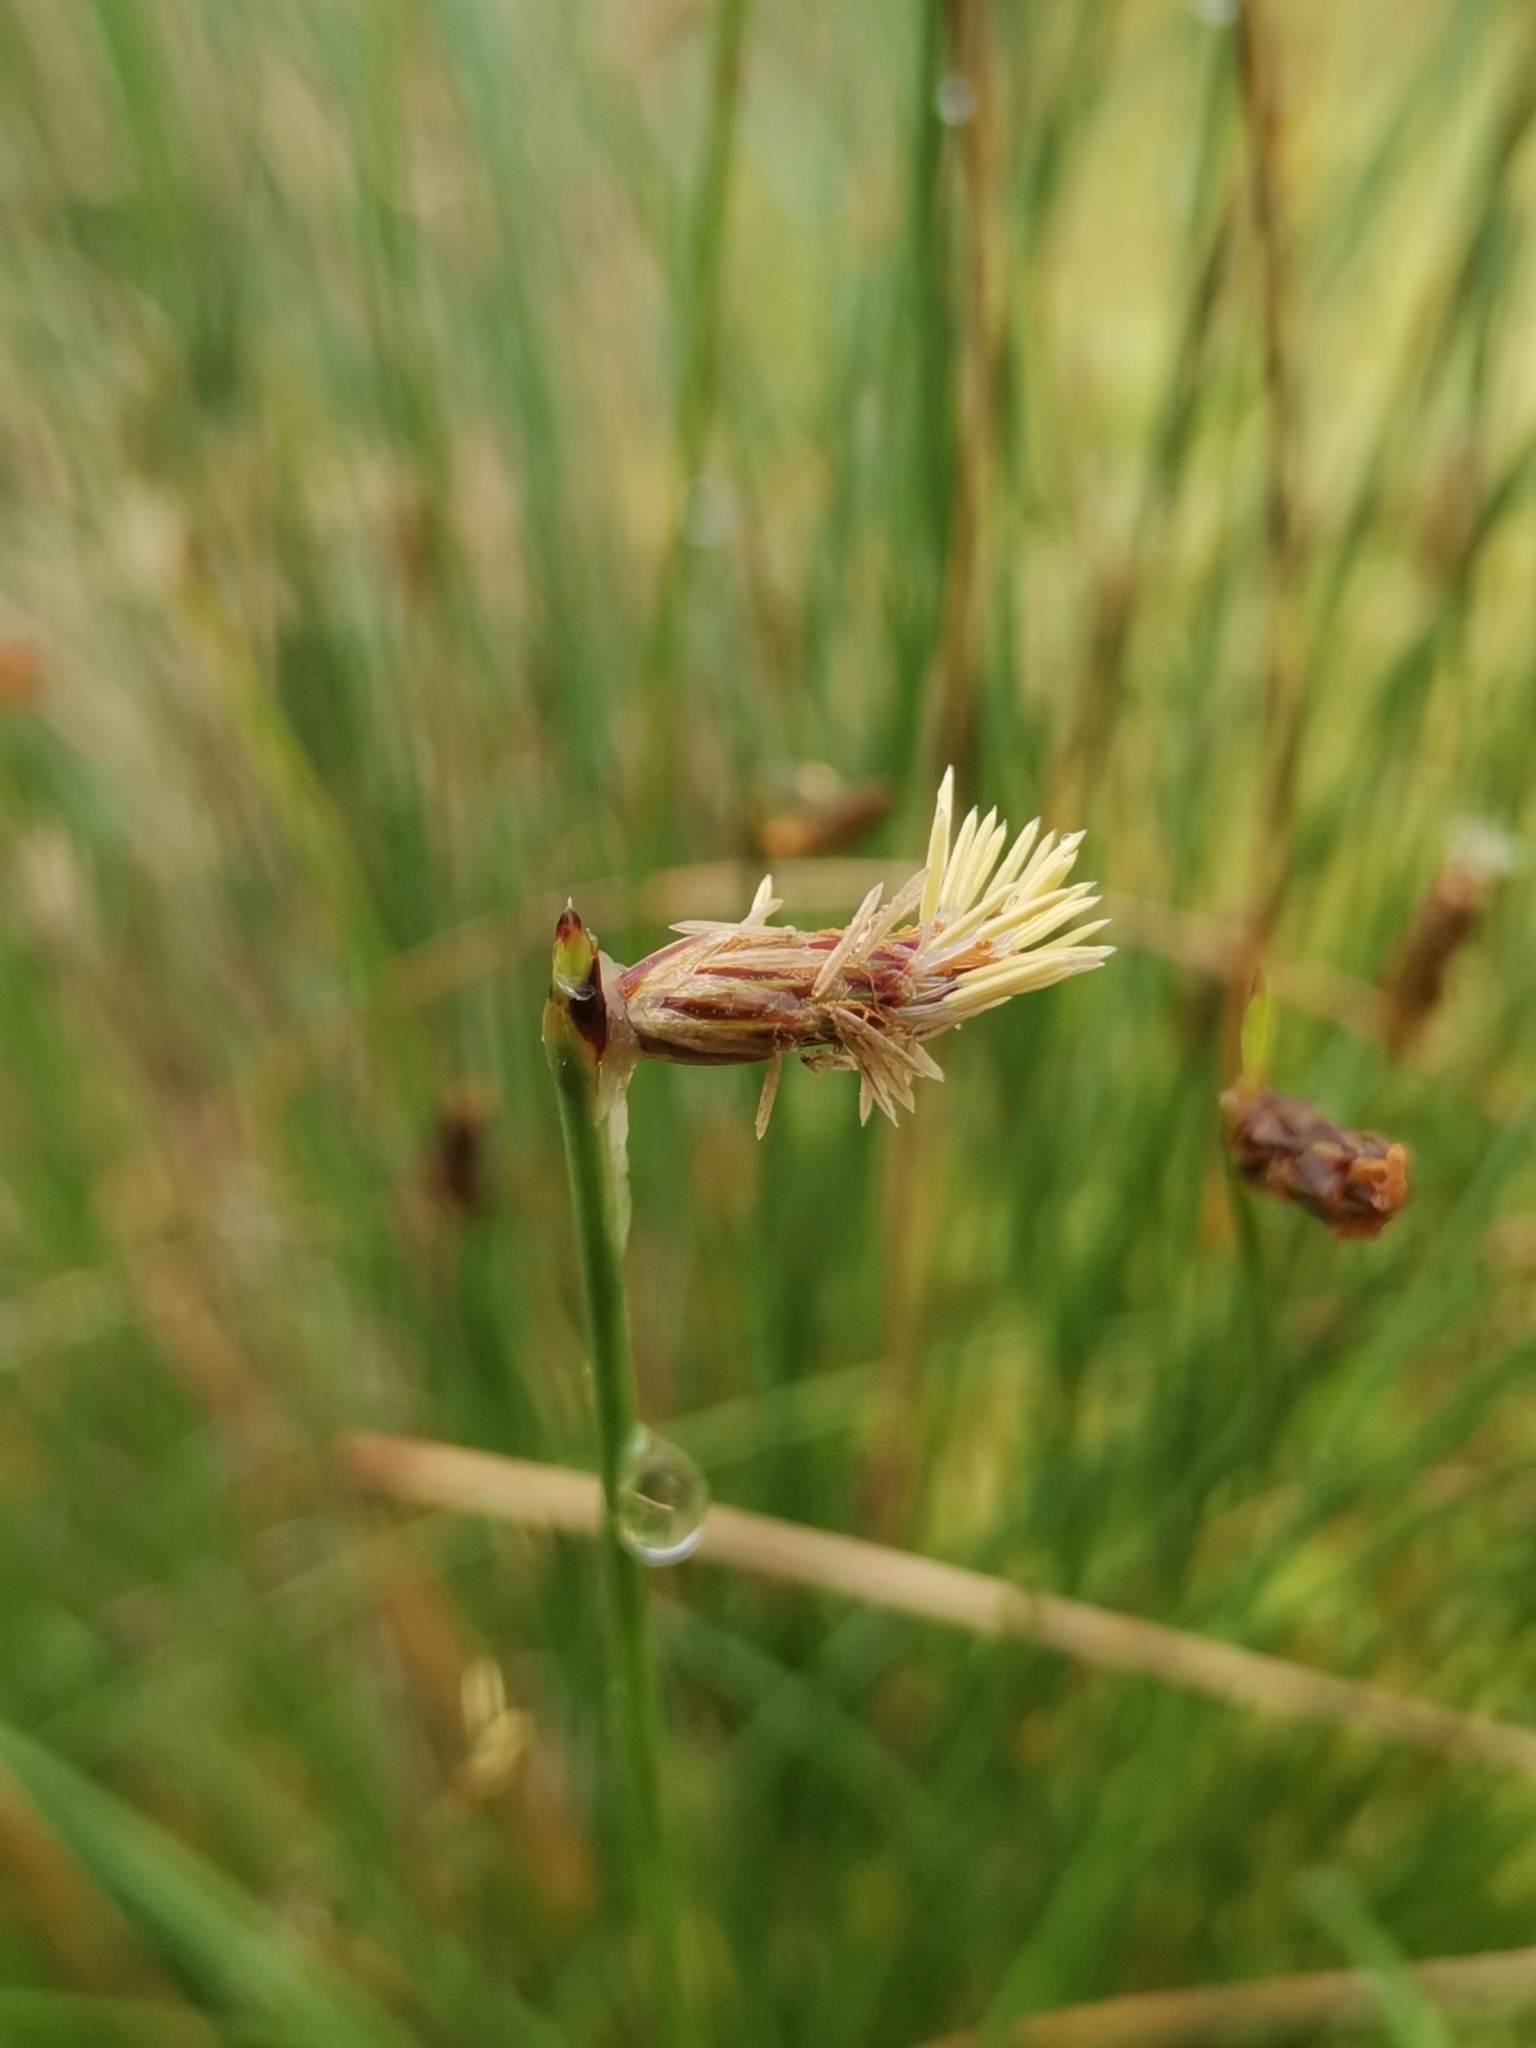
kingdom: Plantae
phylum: Tracheophyta
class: Liliopsida
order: Poales
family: Cyperaceae
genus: Eleocharis
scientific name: Eleocharis multicaulis
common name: Many-stalked spike-rush
